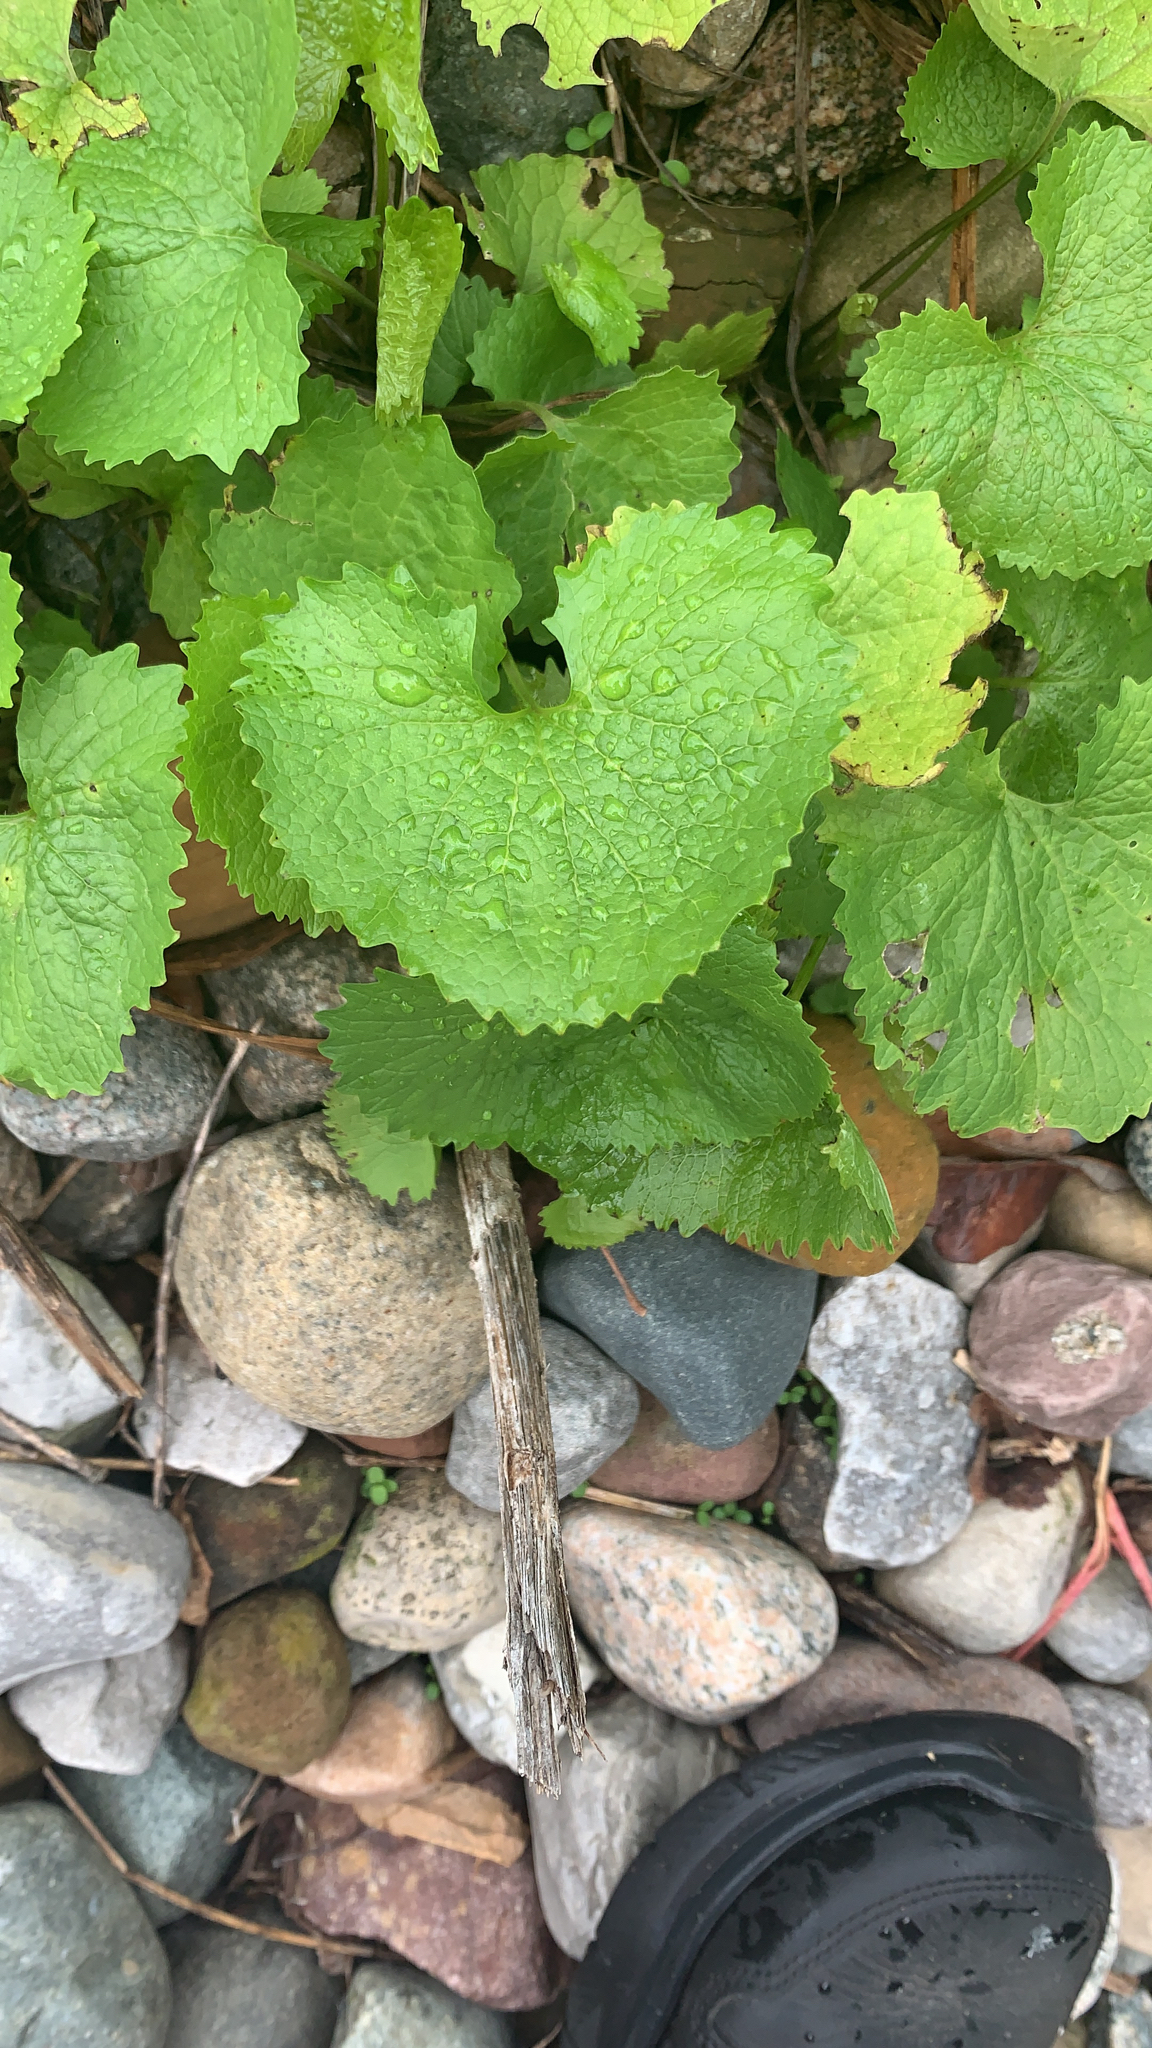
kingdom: Plantae
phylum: Tracheophyta
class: Magnoliopsida
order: Brassicales
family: Brassicaceae
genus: Alliaria
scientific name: Alliaria petiolata
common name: Garlic mustard
